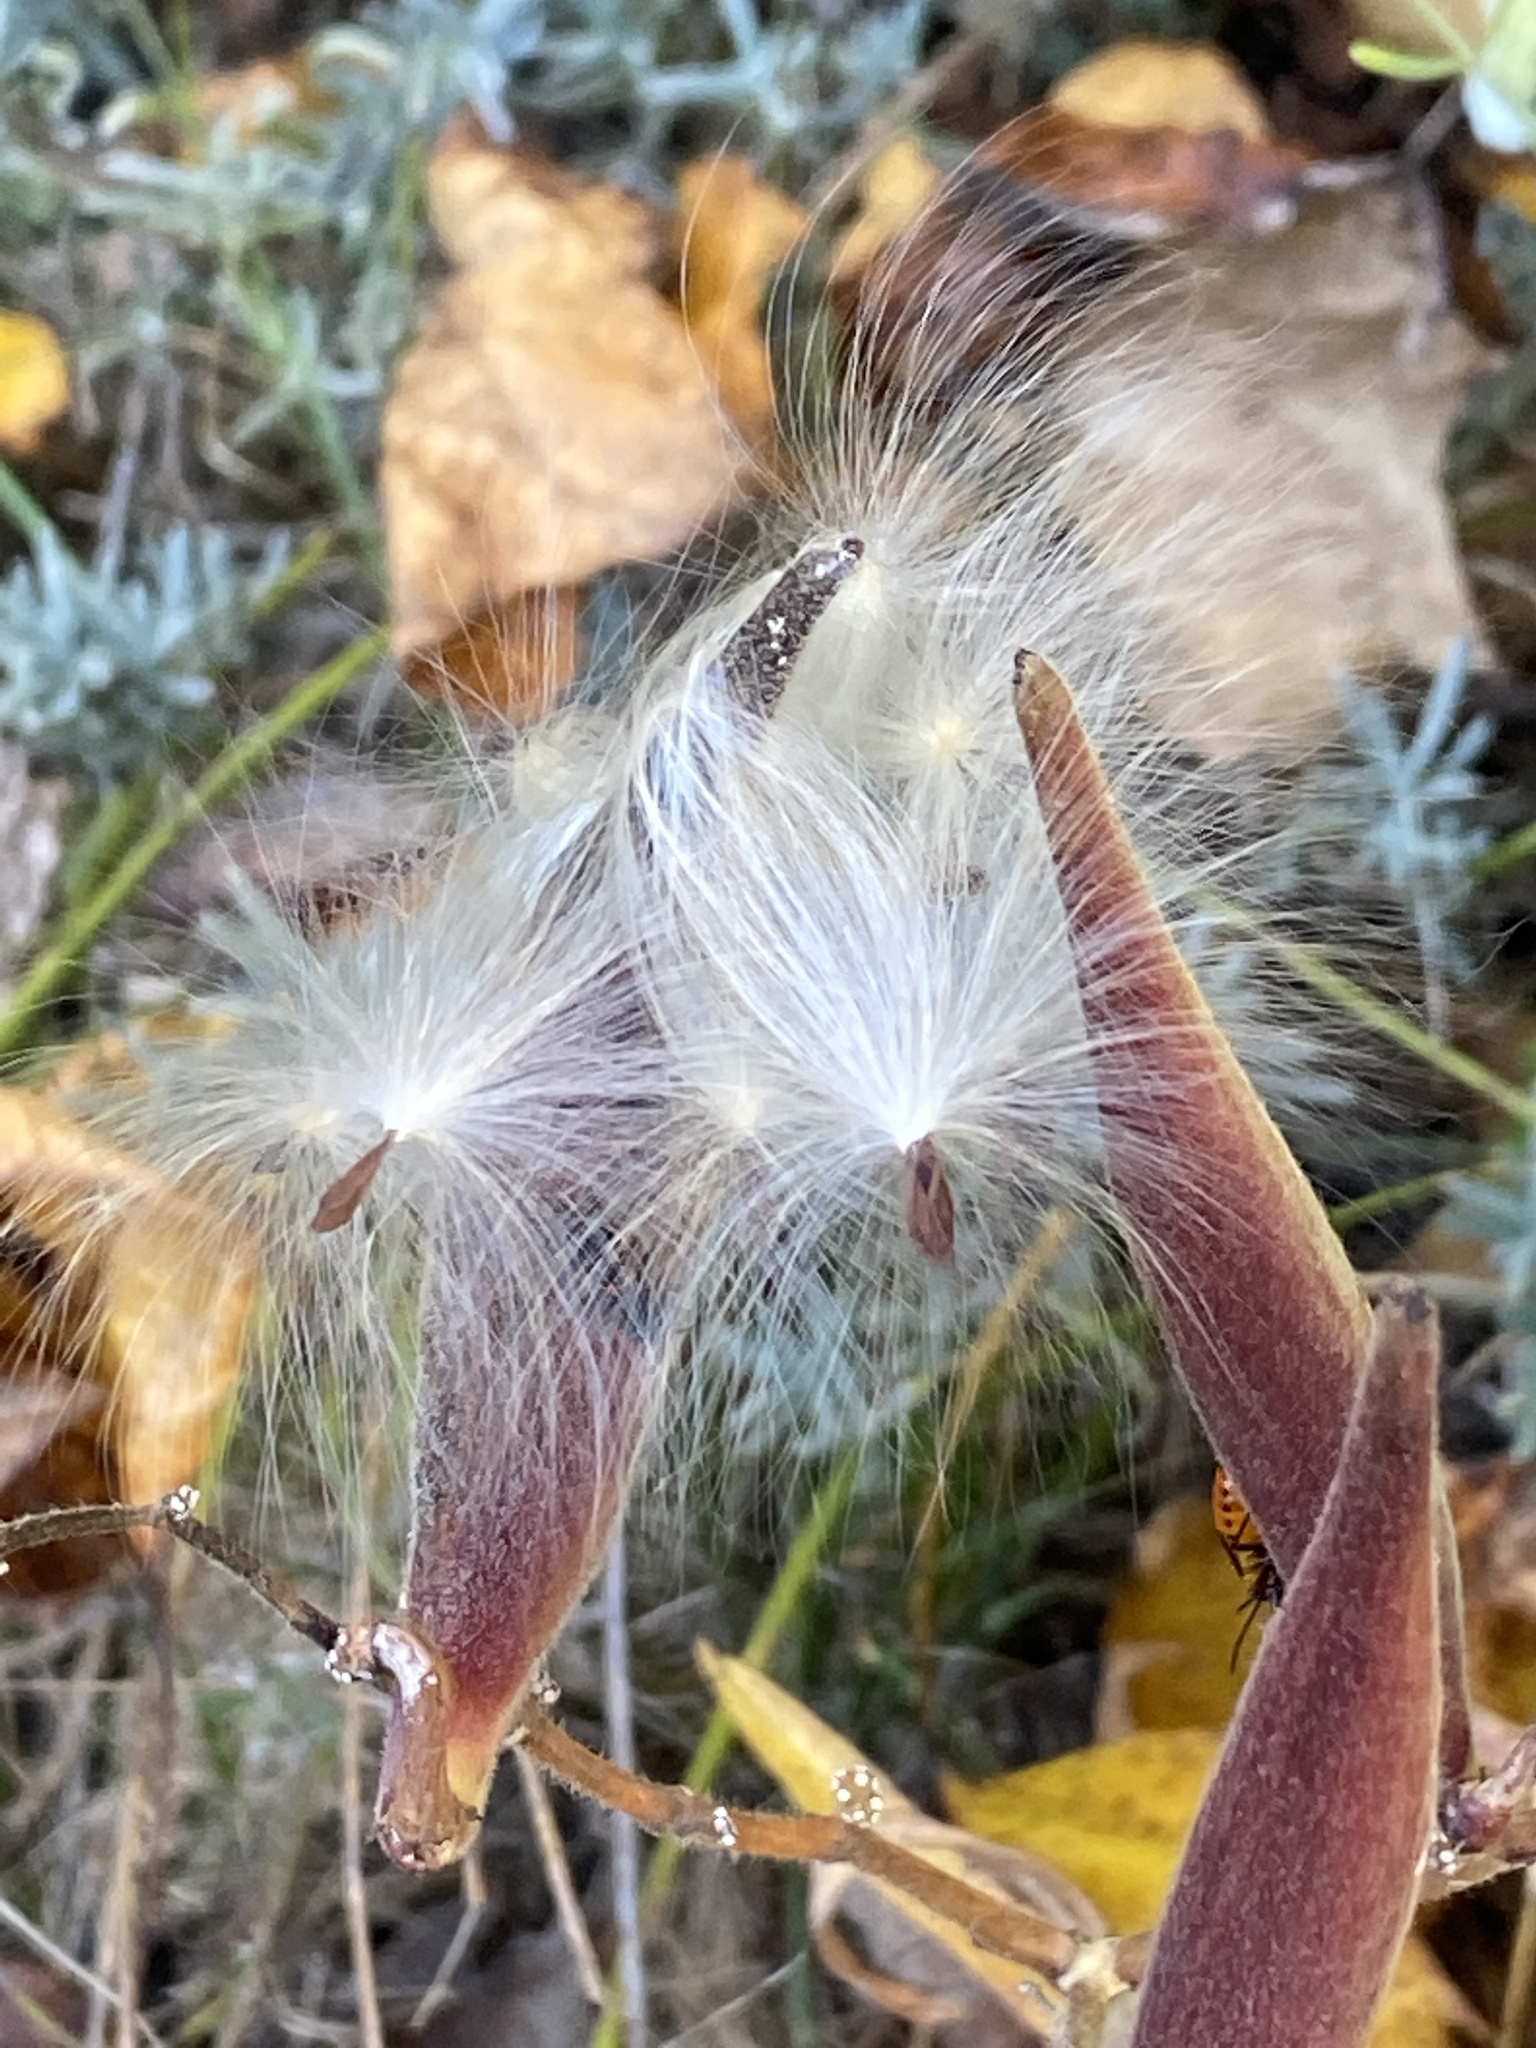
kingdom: Plantae
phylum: Tracheophyta
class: Magnoliopsida
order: Gentianales
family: Apocynaceae
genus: Asclepias
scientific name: Asclepias tuberosa
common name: Butterfly milkweed
